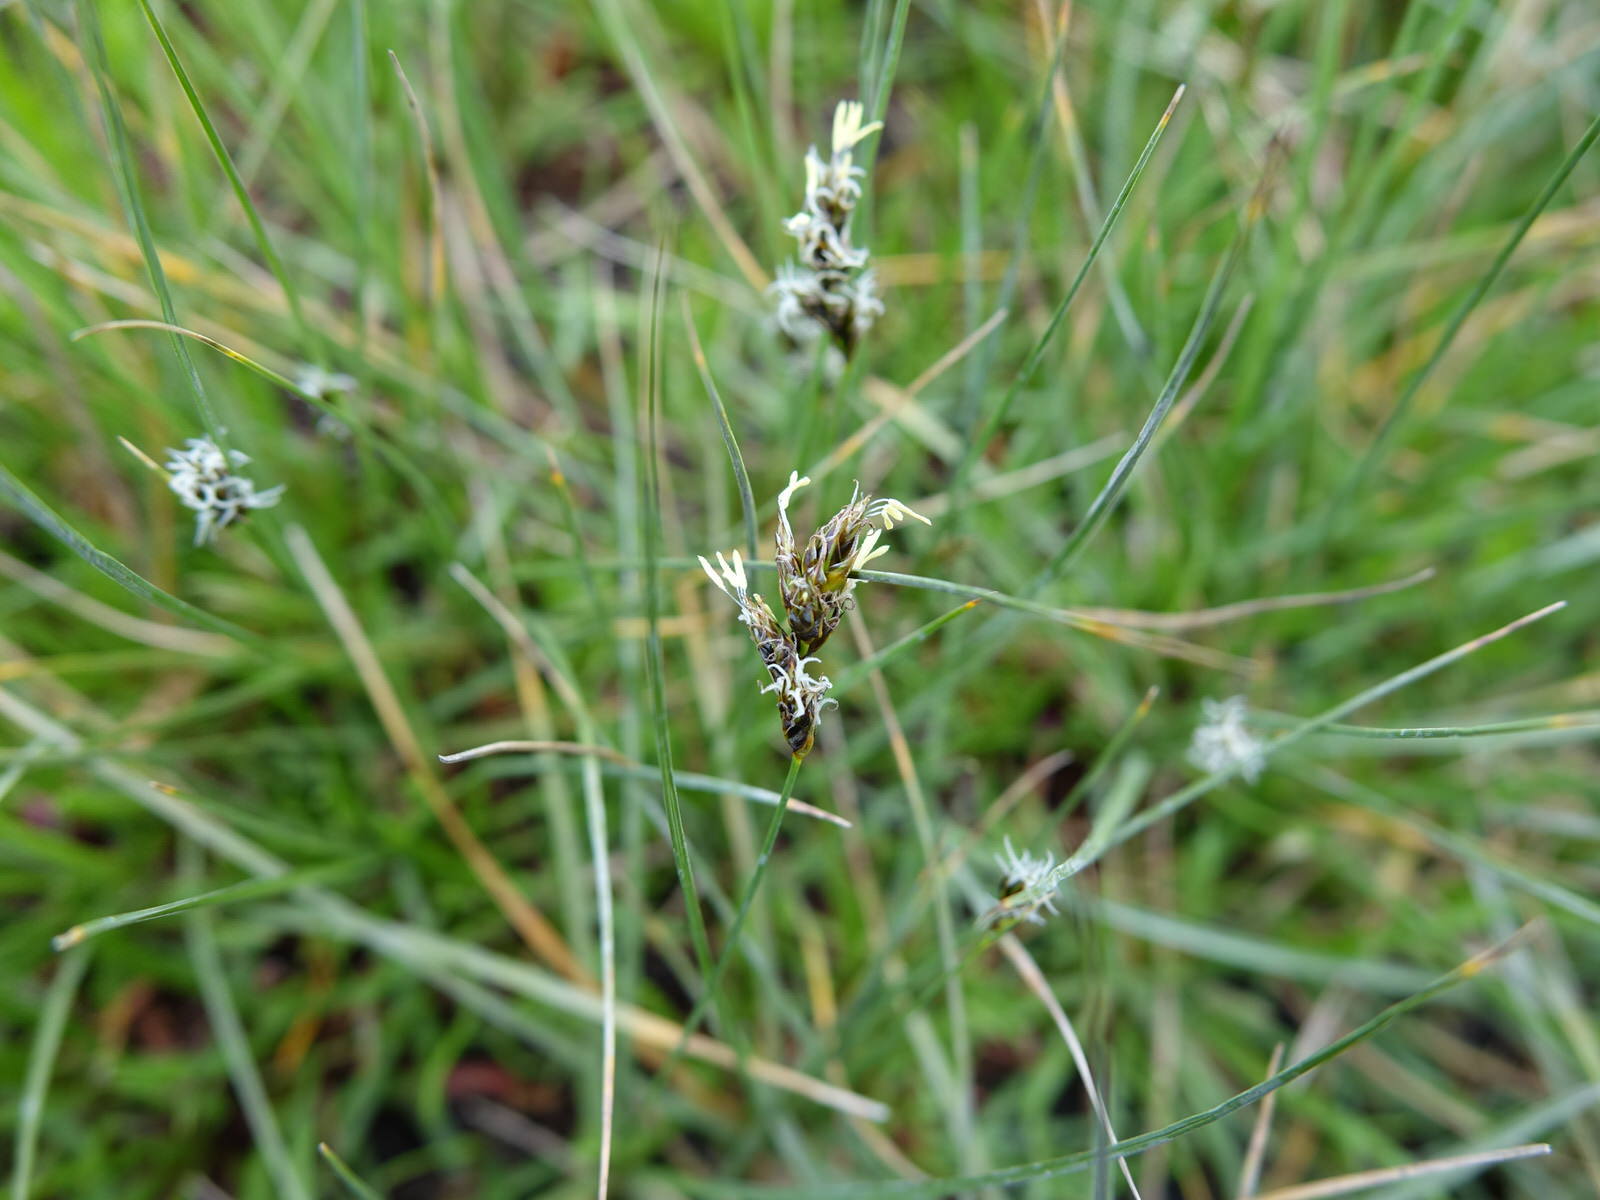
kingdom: Plantae
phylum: Tracheophyta
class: Liliopsida
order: Poales
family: Cyperaceae
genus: Carex
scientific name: Carex divisa
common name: Divided sedge
